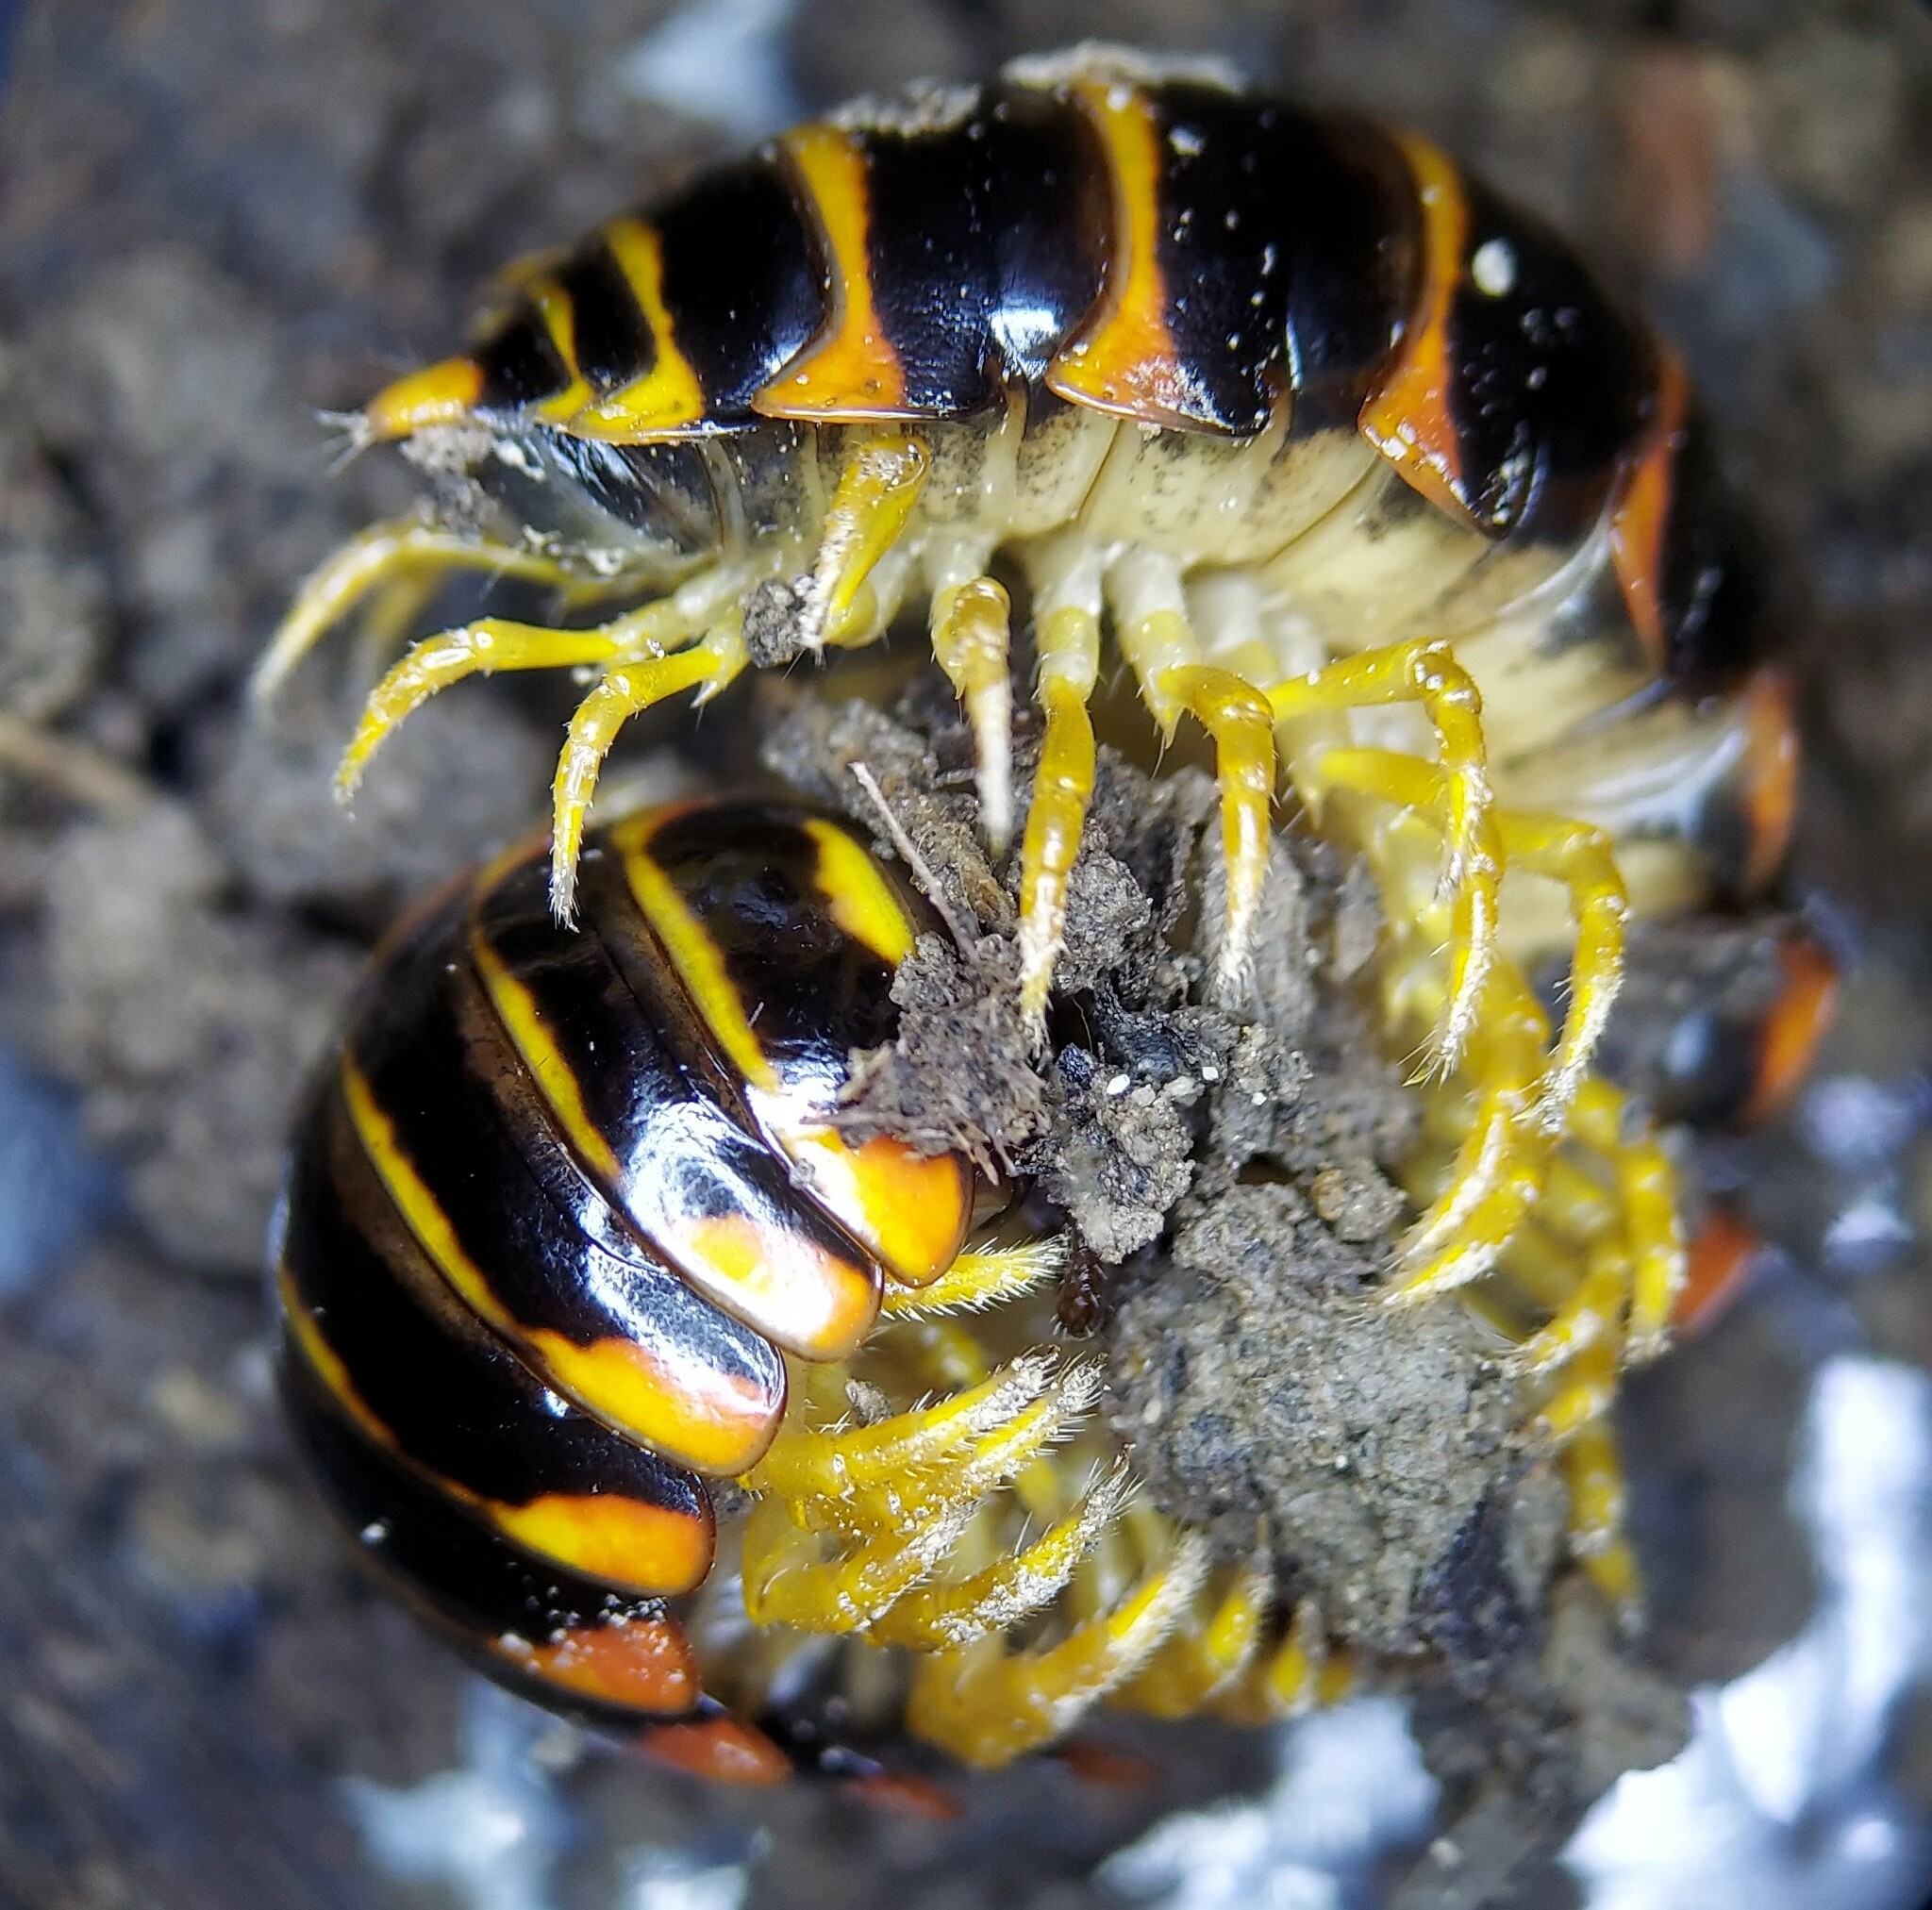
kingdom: Animalia
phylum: Arthropoda
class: Diplopoda
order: Polydesmida
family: Xystodesmidae
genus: Appalachioria
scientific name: Appalachioria calcaria
